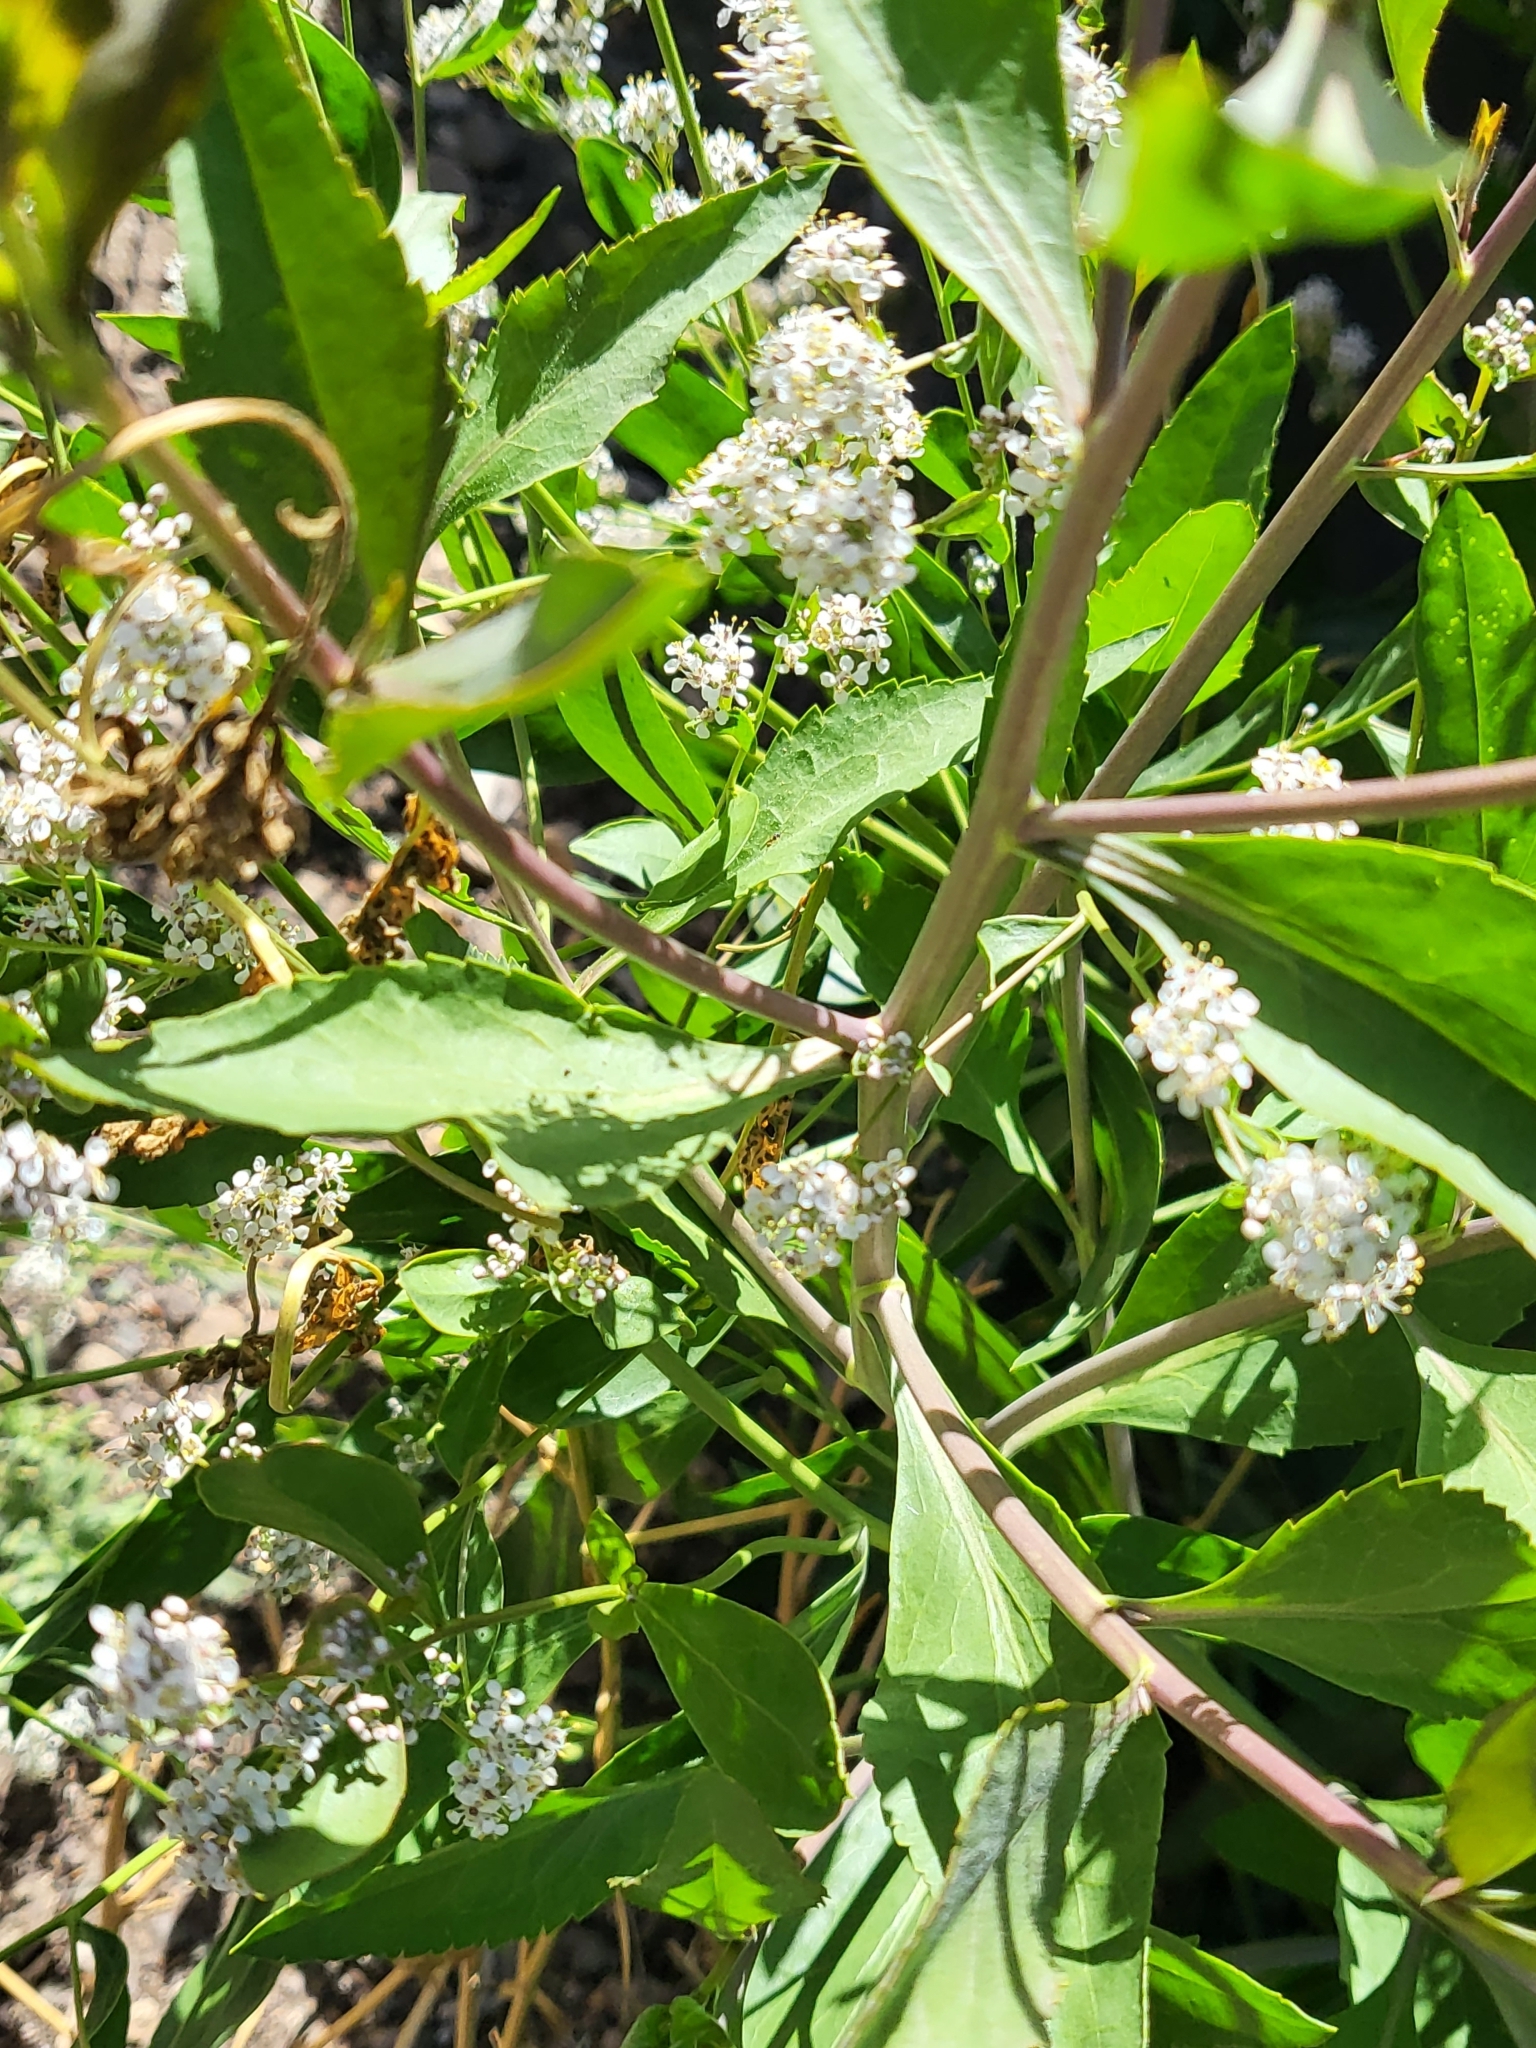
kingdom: Plantae
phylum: Tracheophyta
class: Magnoliopsida
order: Brassicales
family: Brassicaceae
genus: Lepidium
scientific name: Lepidium latifolium
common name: Dittander
